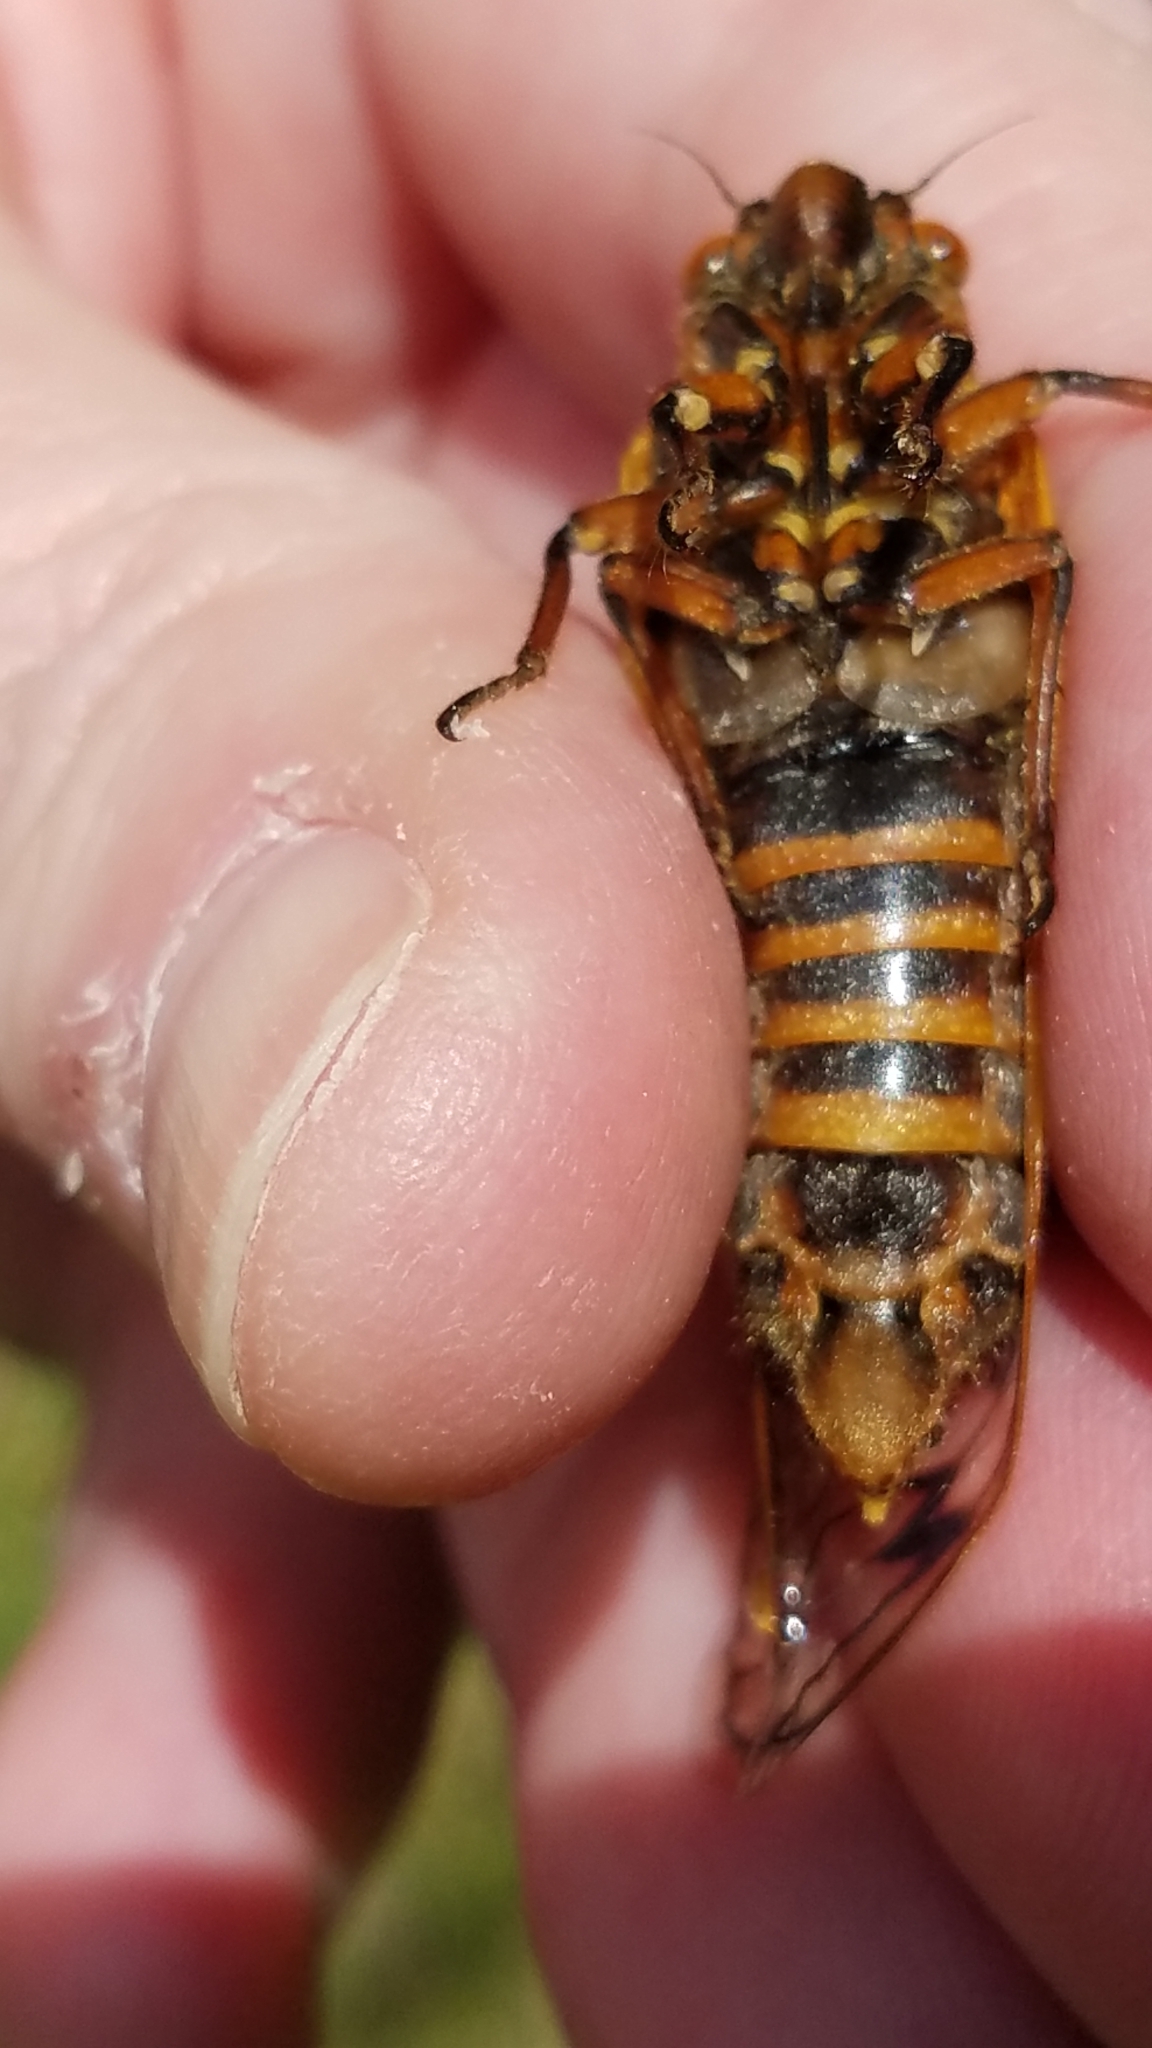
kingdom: Animalia
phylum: Arthropoda
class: Insecta
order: Hemiptera
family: Cicadidae
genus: Magicicada
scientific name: Magicicada septendecim
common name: Periodical cicada
